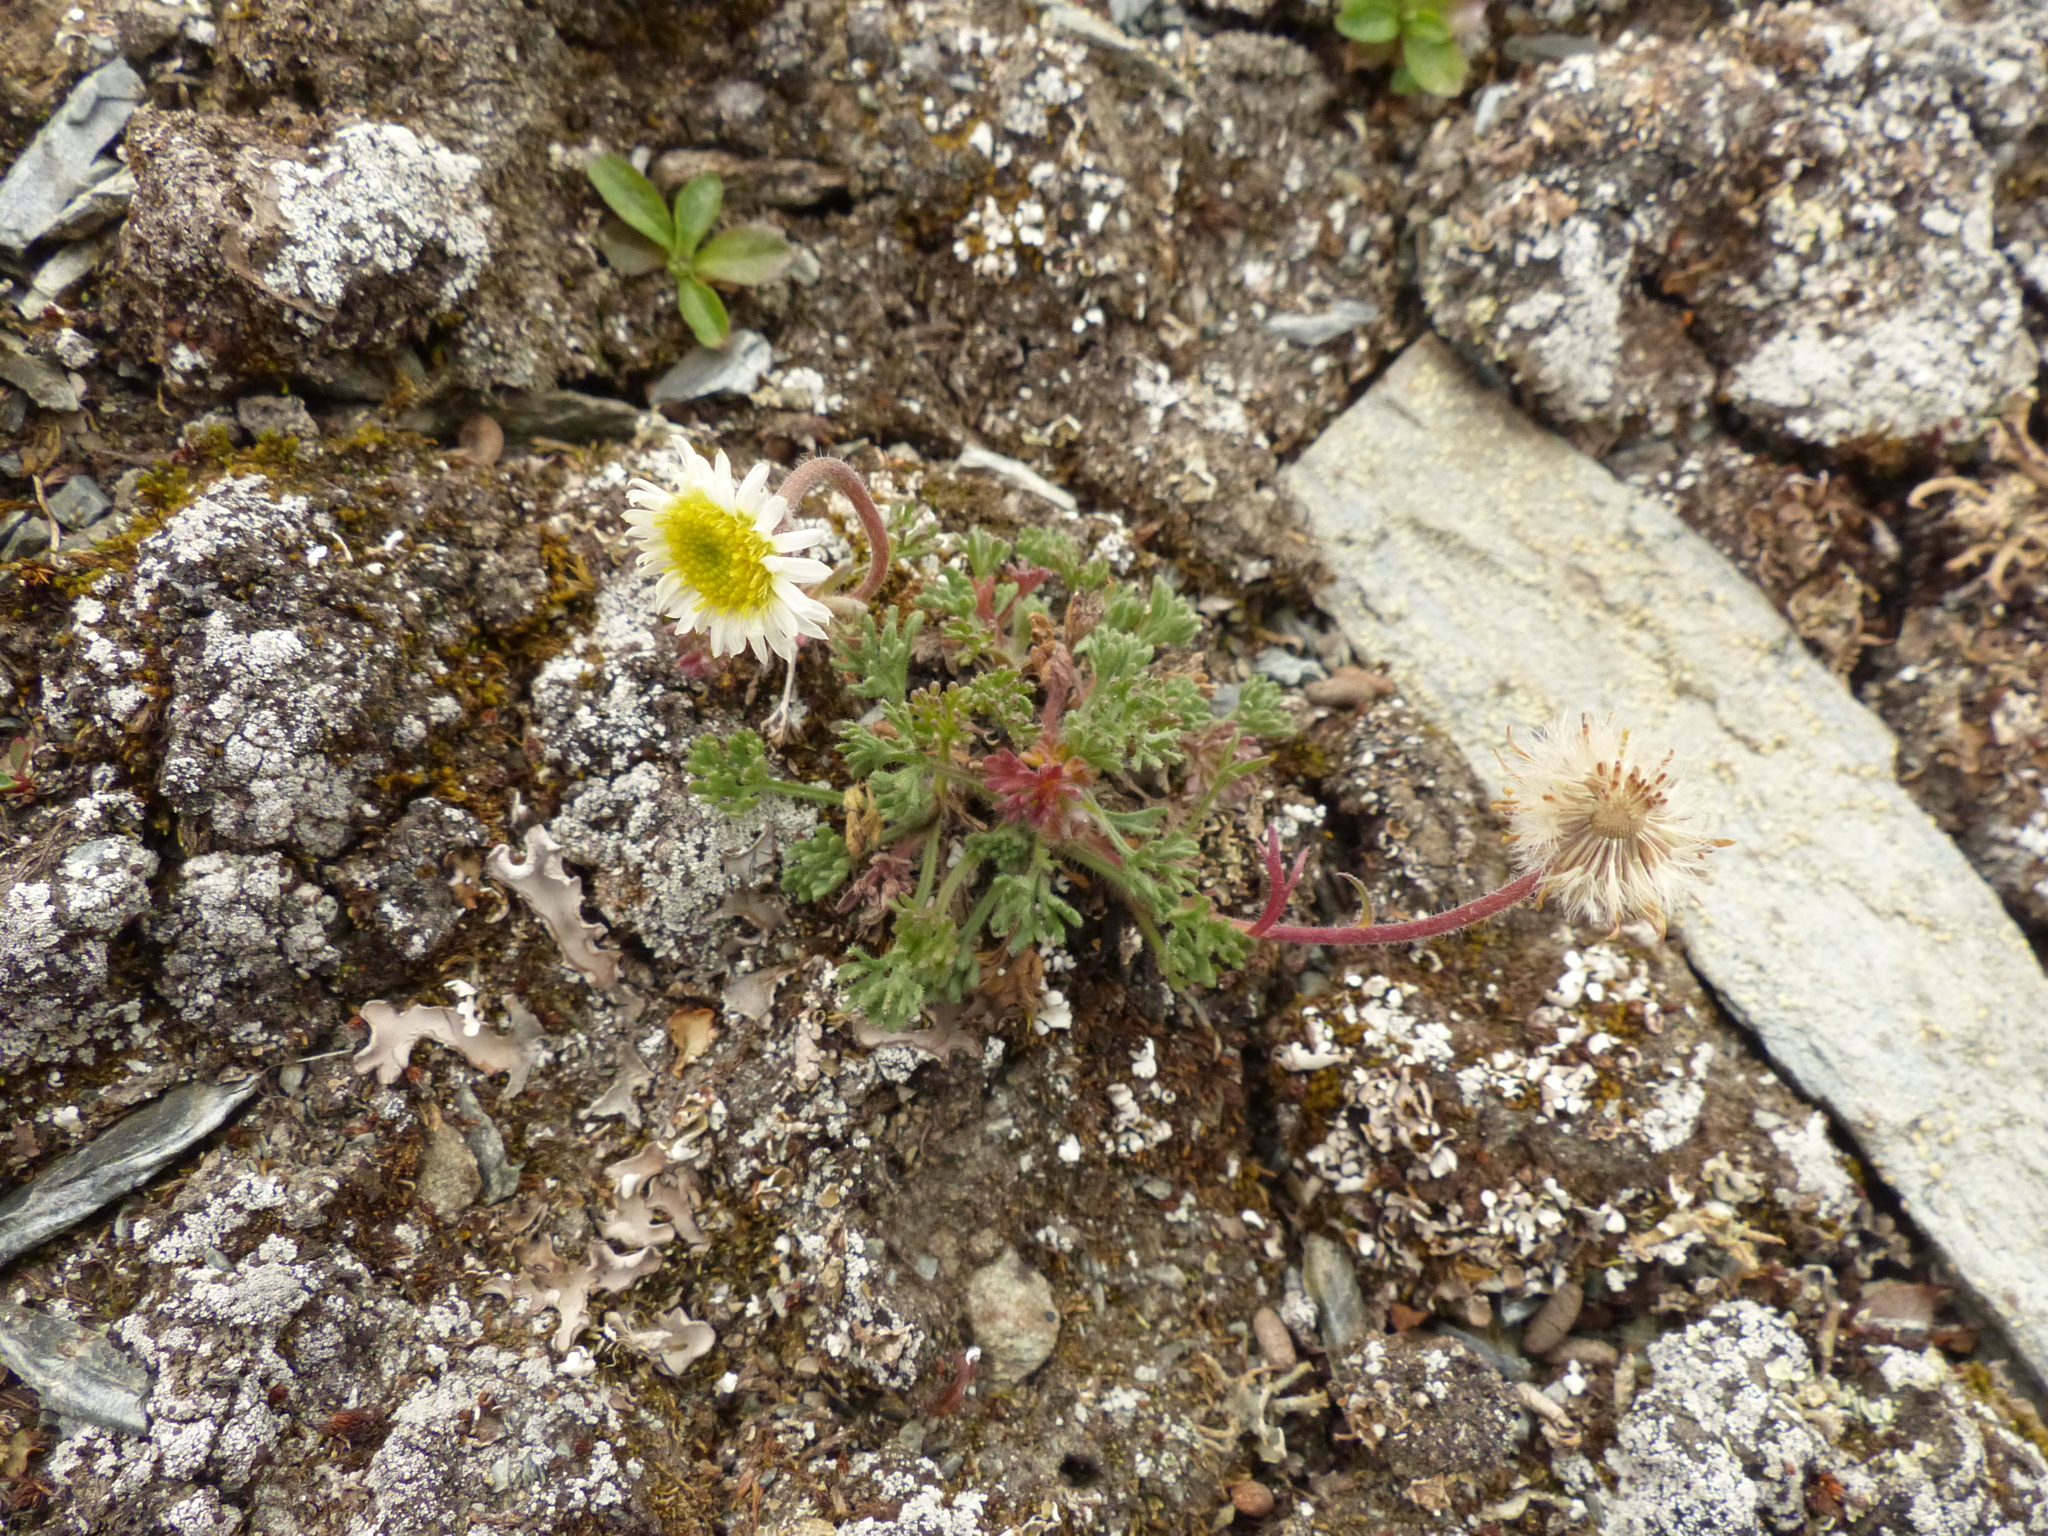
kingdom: Plantae
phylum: Tracheophyta
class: Magnoliopsida
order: Asterales
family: Asteraceae
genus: Erigeron
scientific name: Erigeron compositus
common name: Dwarf mountain fleabane
